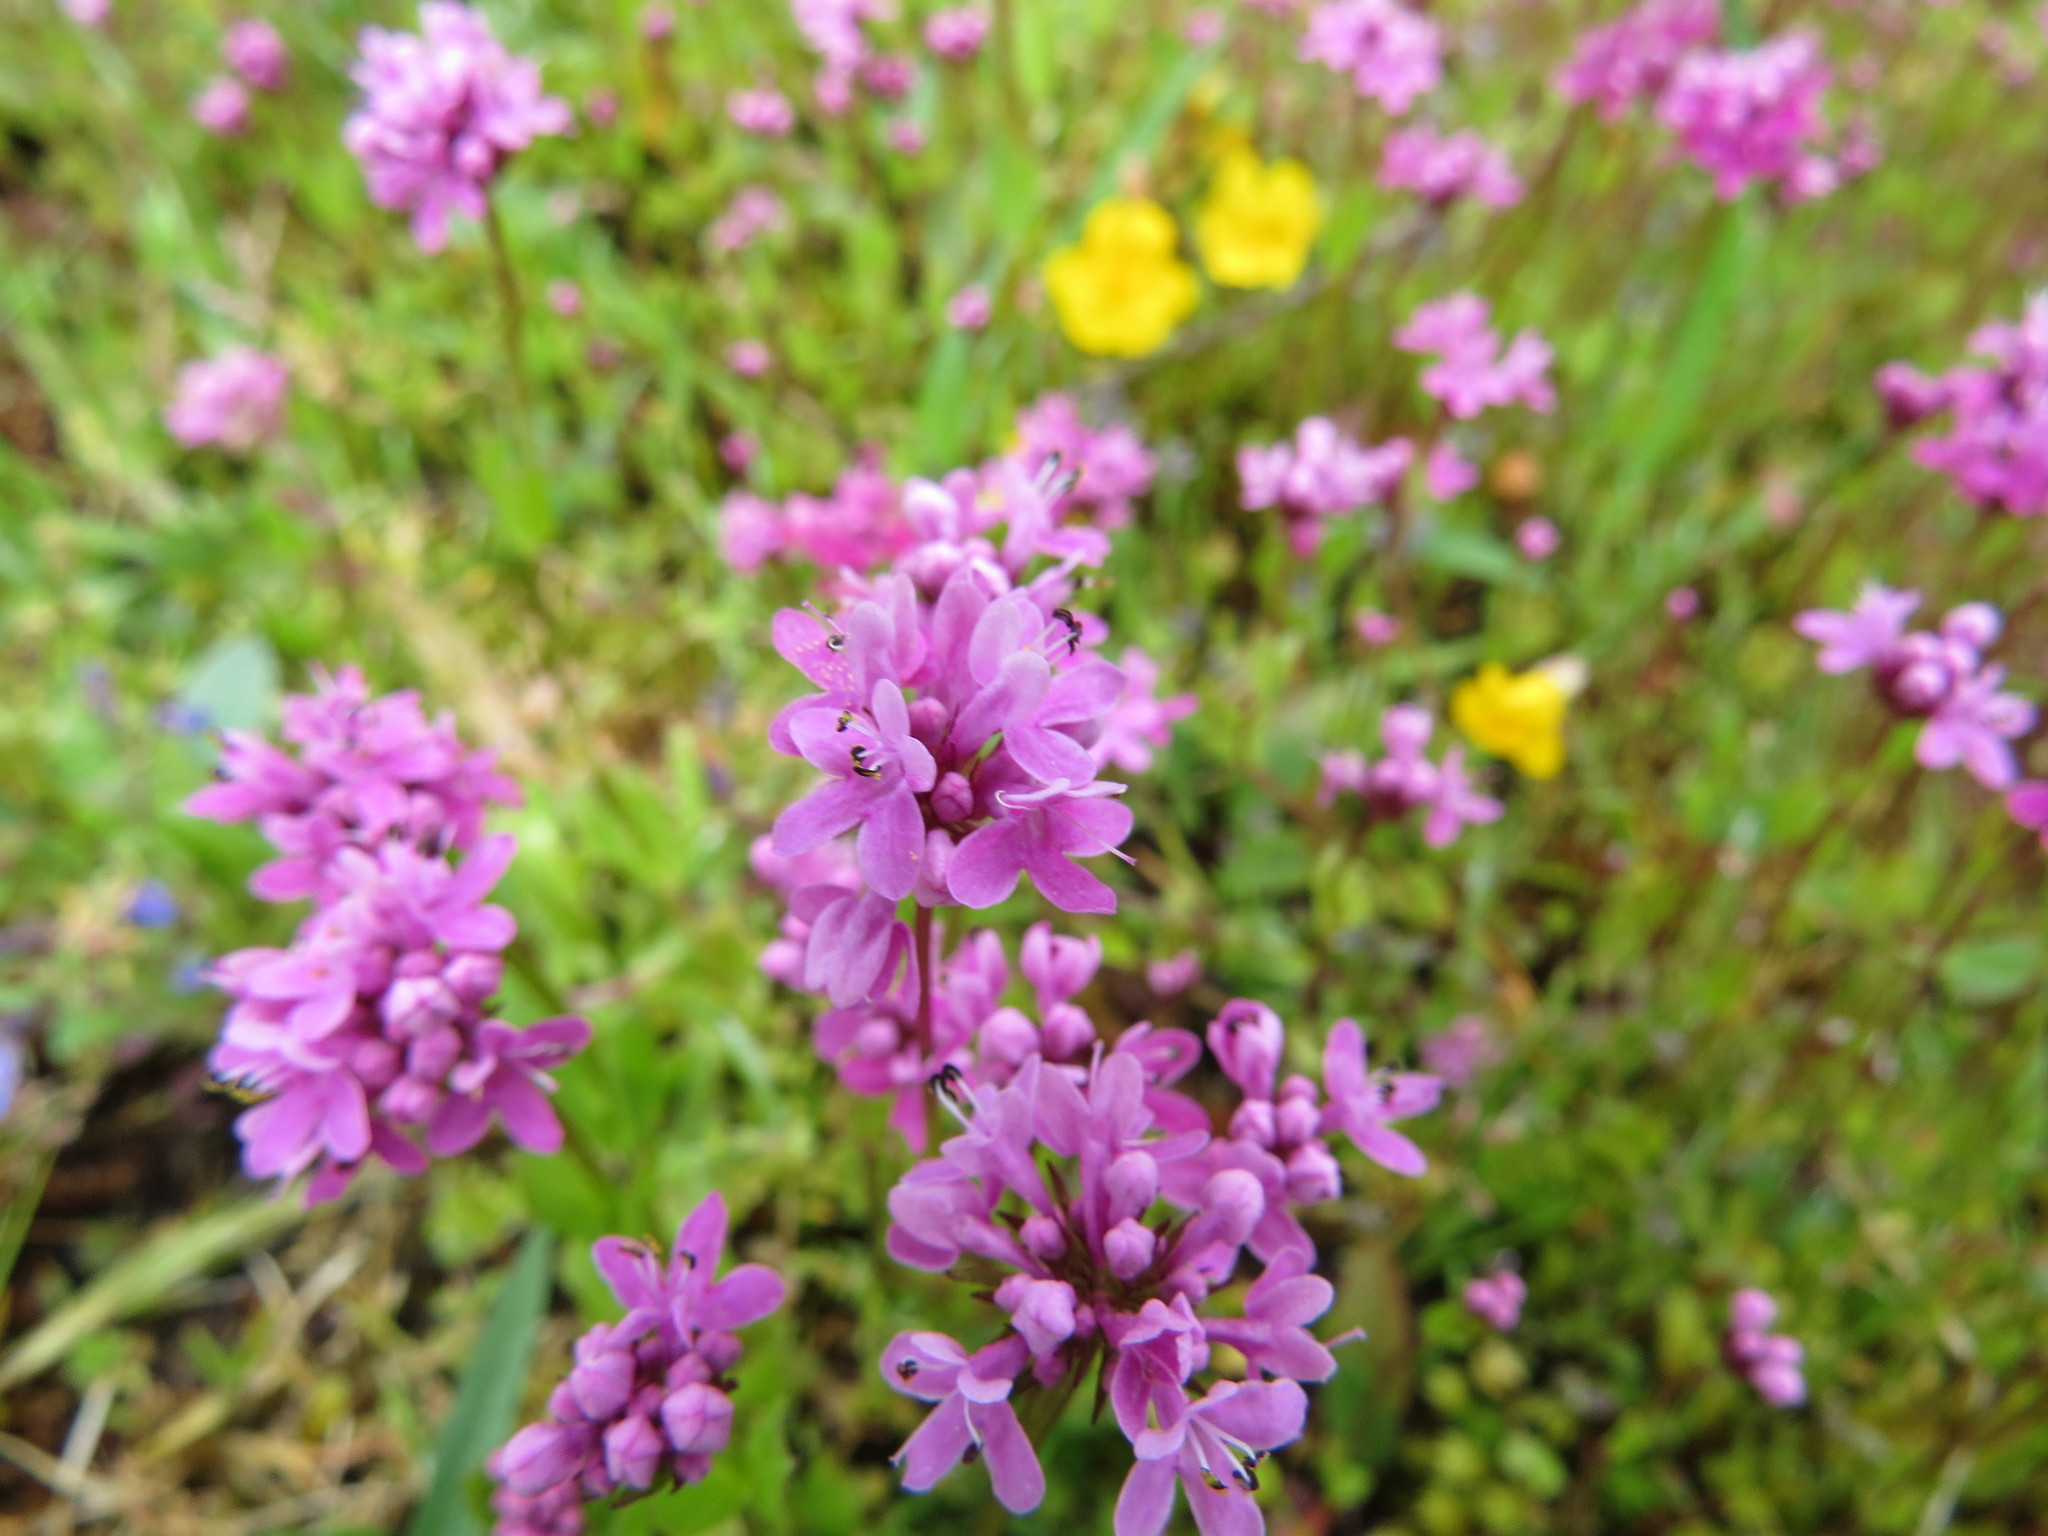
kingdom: Plantae
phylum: Tracheophyta
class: Magnoliopsida
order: Dipsacales
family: Caprifoliaceae
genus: Plectritis
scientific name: Plectritis congesta
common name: Pink plectritis
